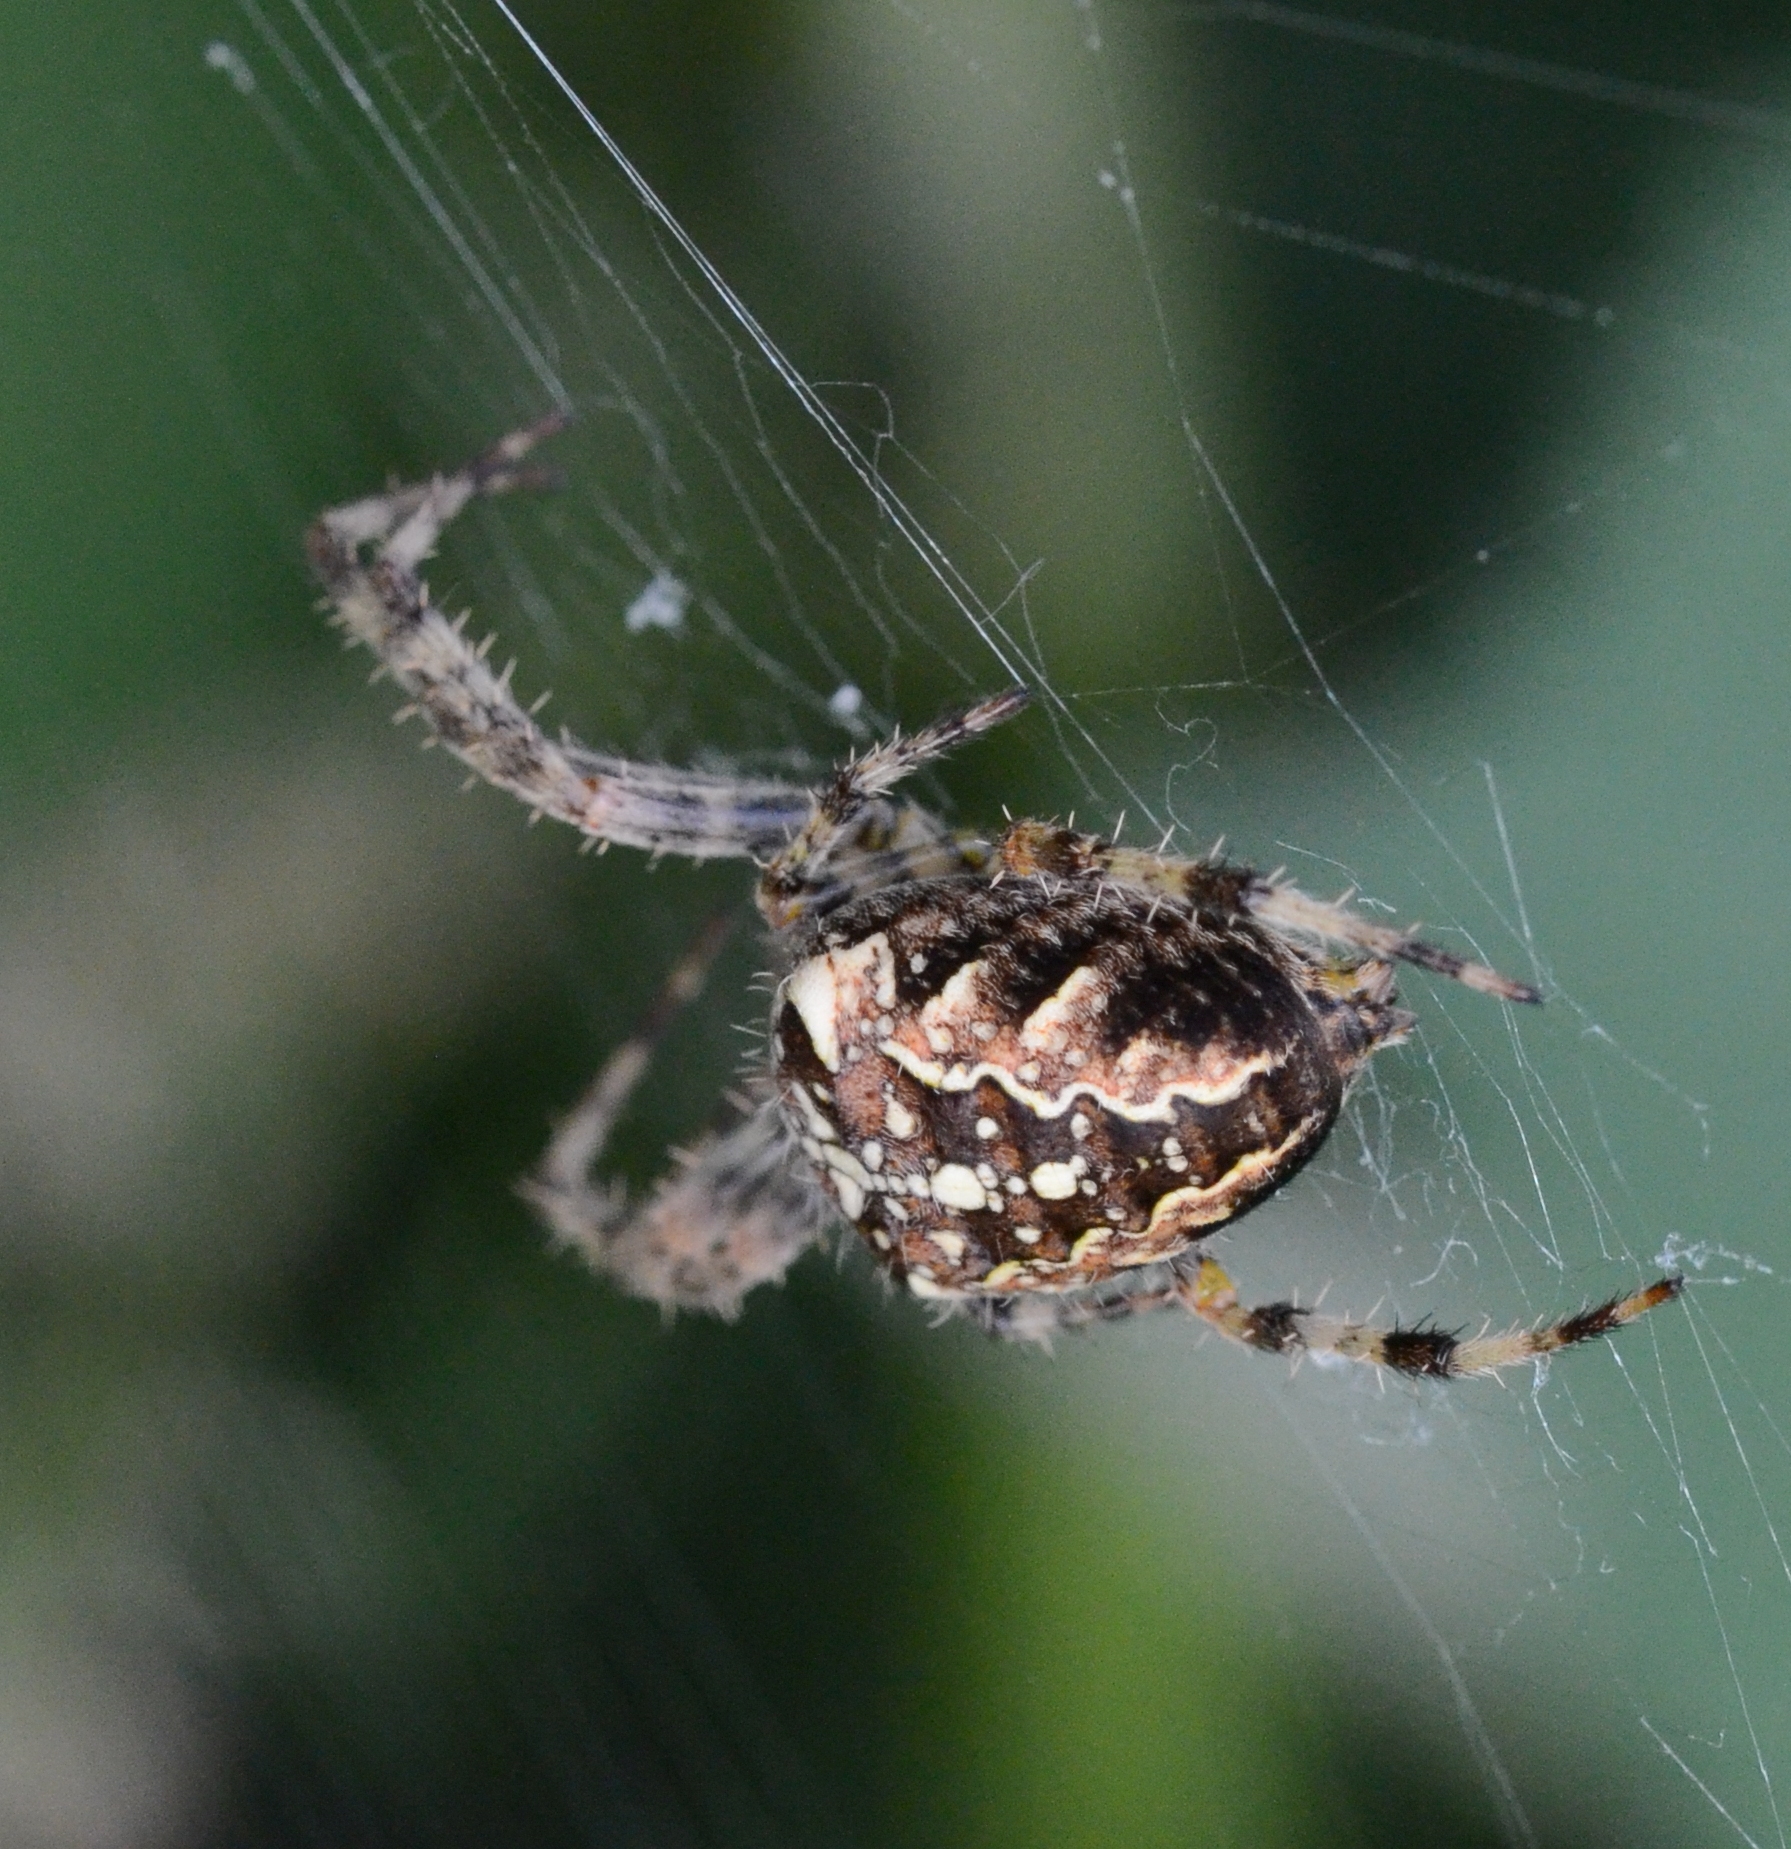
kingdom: Animalia
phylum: Arthropoda
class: Arachnida
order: Araneae
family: Araneidae
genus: Araneus
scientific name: Araneus diadematus
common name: Cross orbweaver
